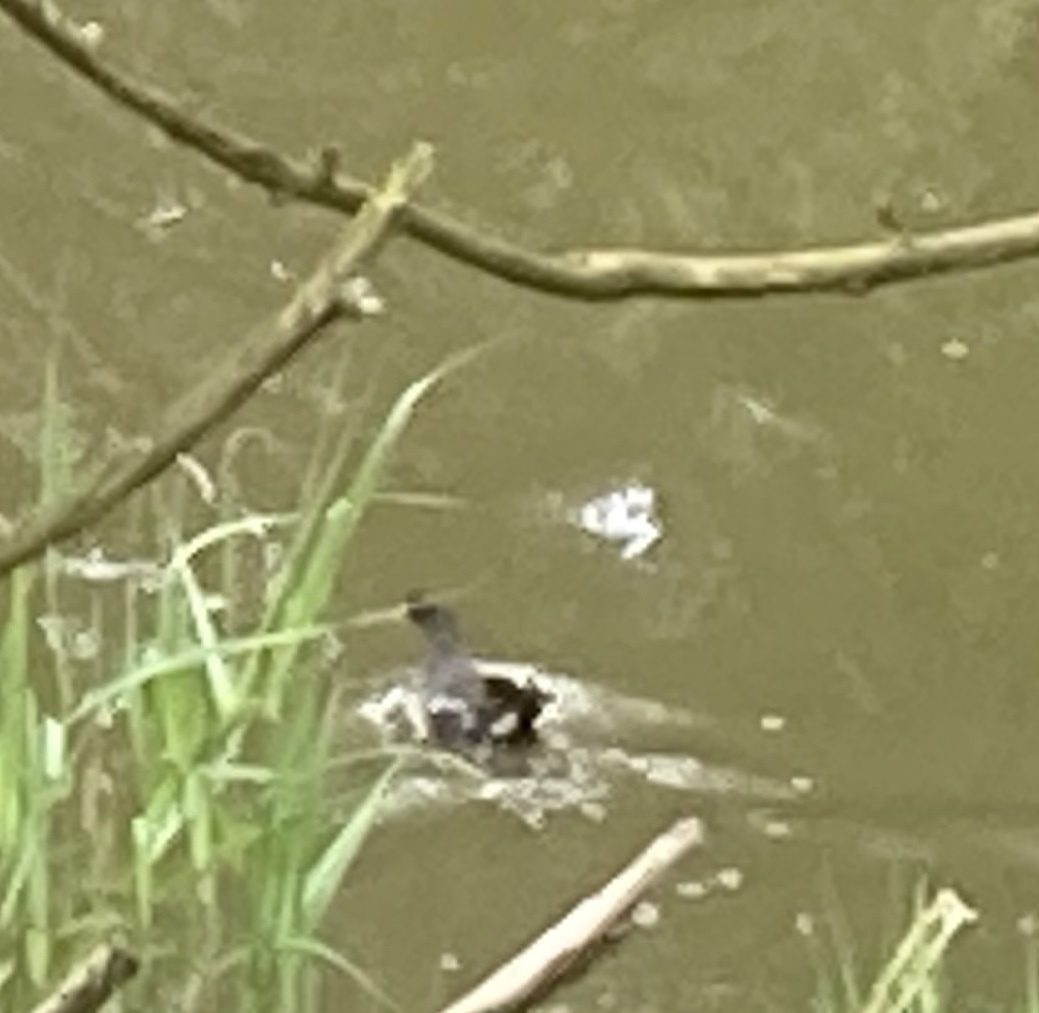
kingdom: Animalia
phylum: Chordata
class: Aves
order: Gruiformes
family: Rallidae
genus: Gallinula
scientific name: Gallinula chloropus
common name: Common moorhen
